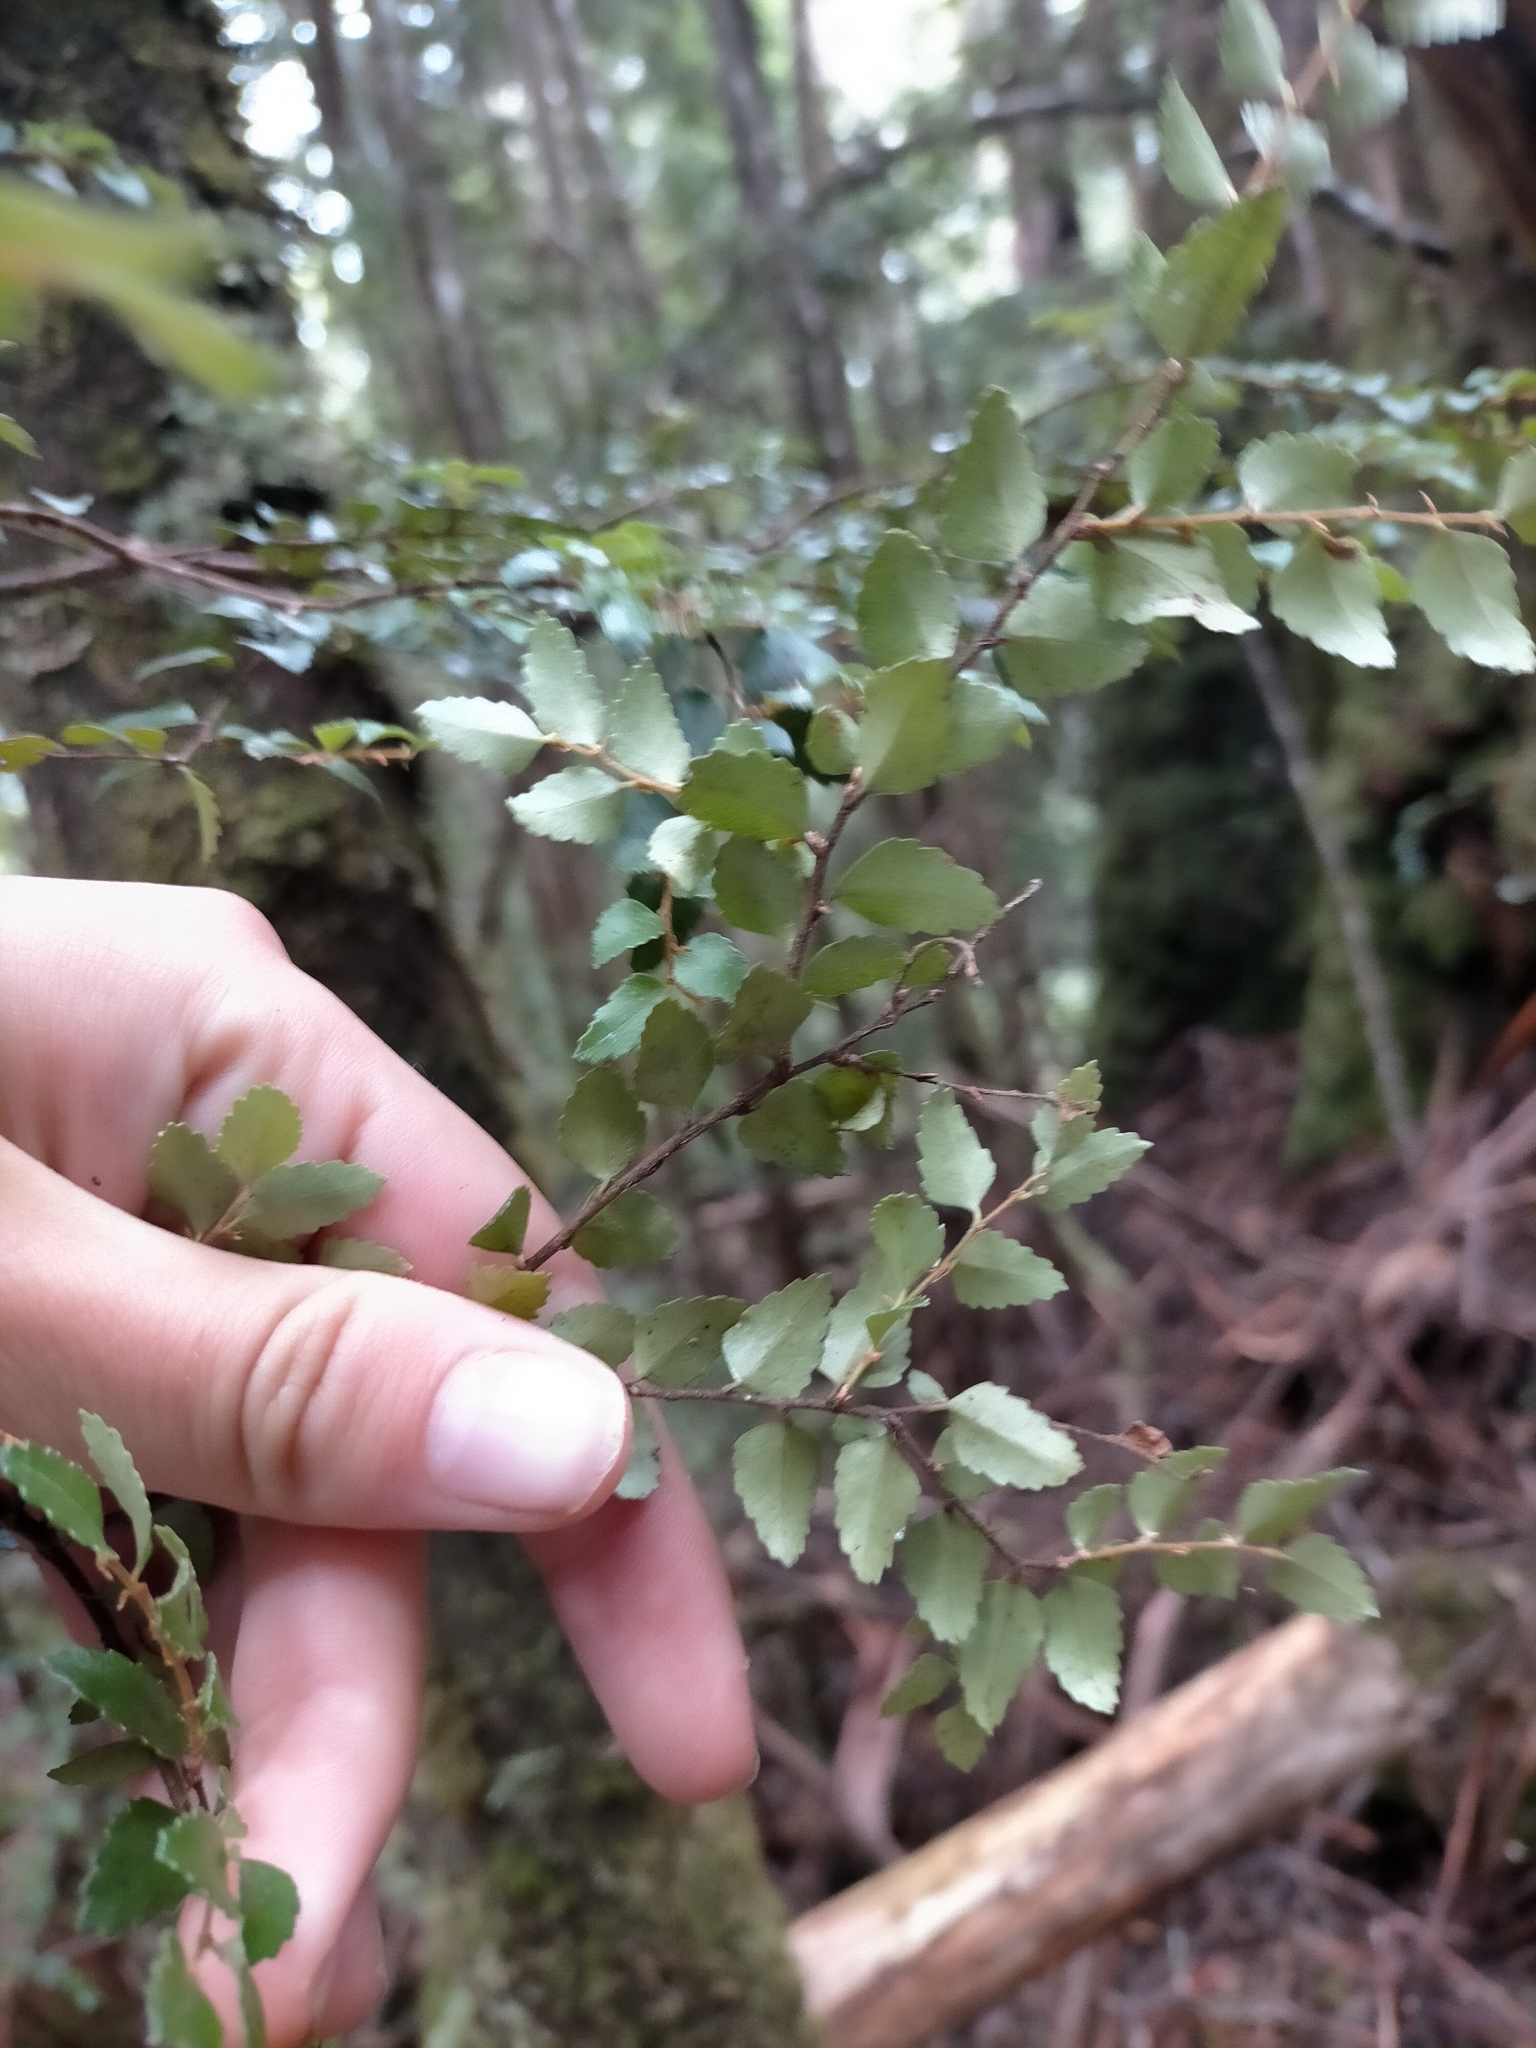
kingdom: Plantae
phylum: Tracheophyta
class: Magnoliopsida
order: Fagales
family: Nothofagaceae
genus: Nothofagus
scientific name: Nothofagus cunninghamii
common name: Myrtle beech
